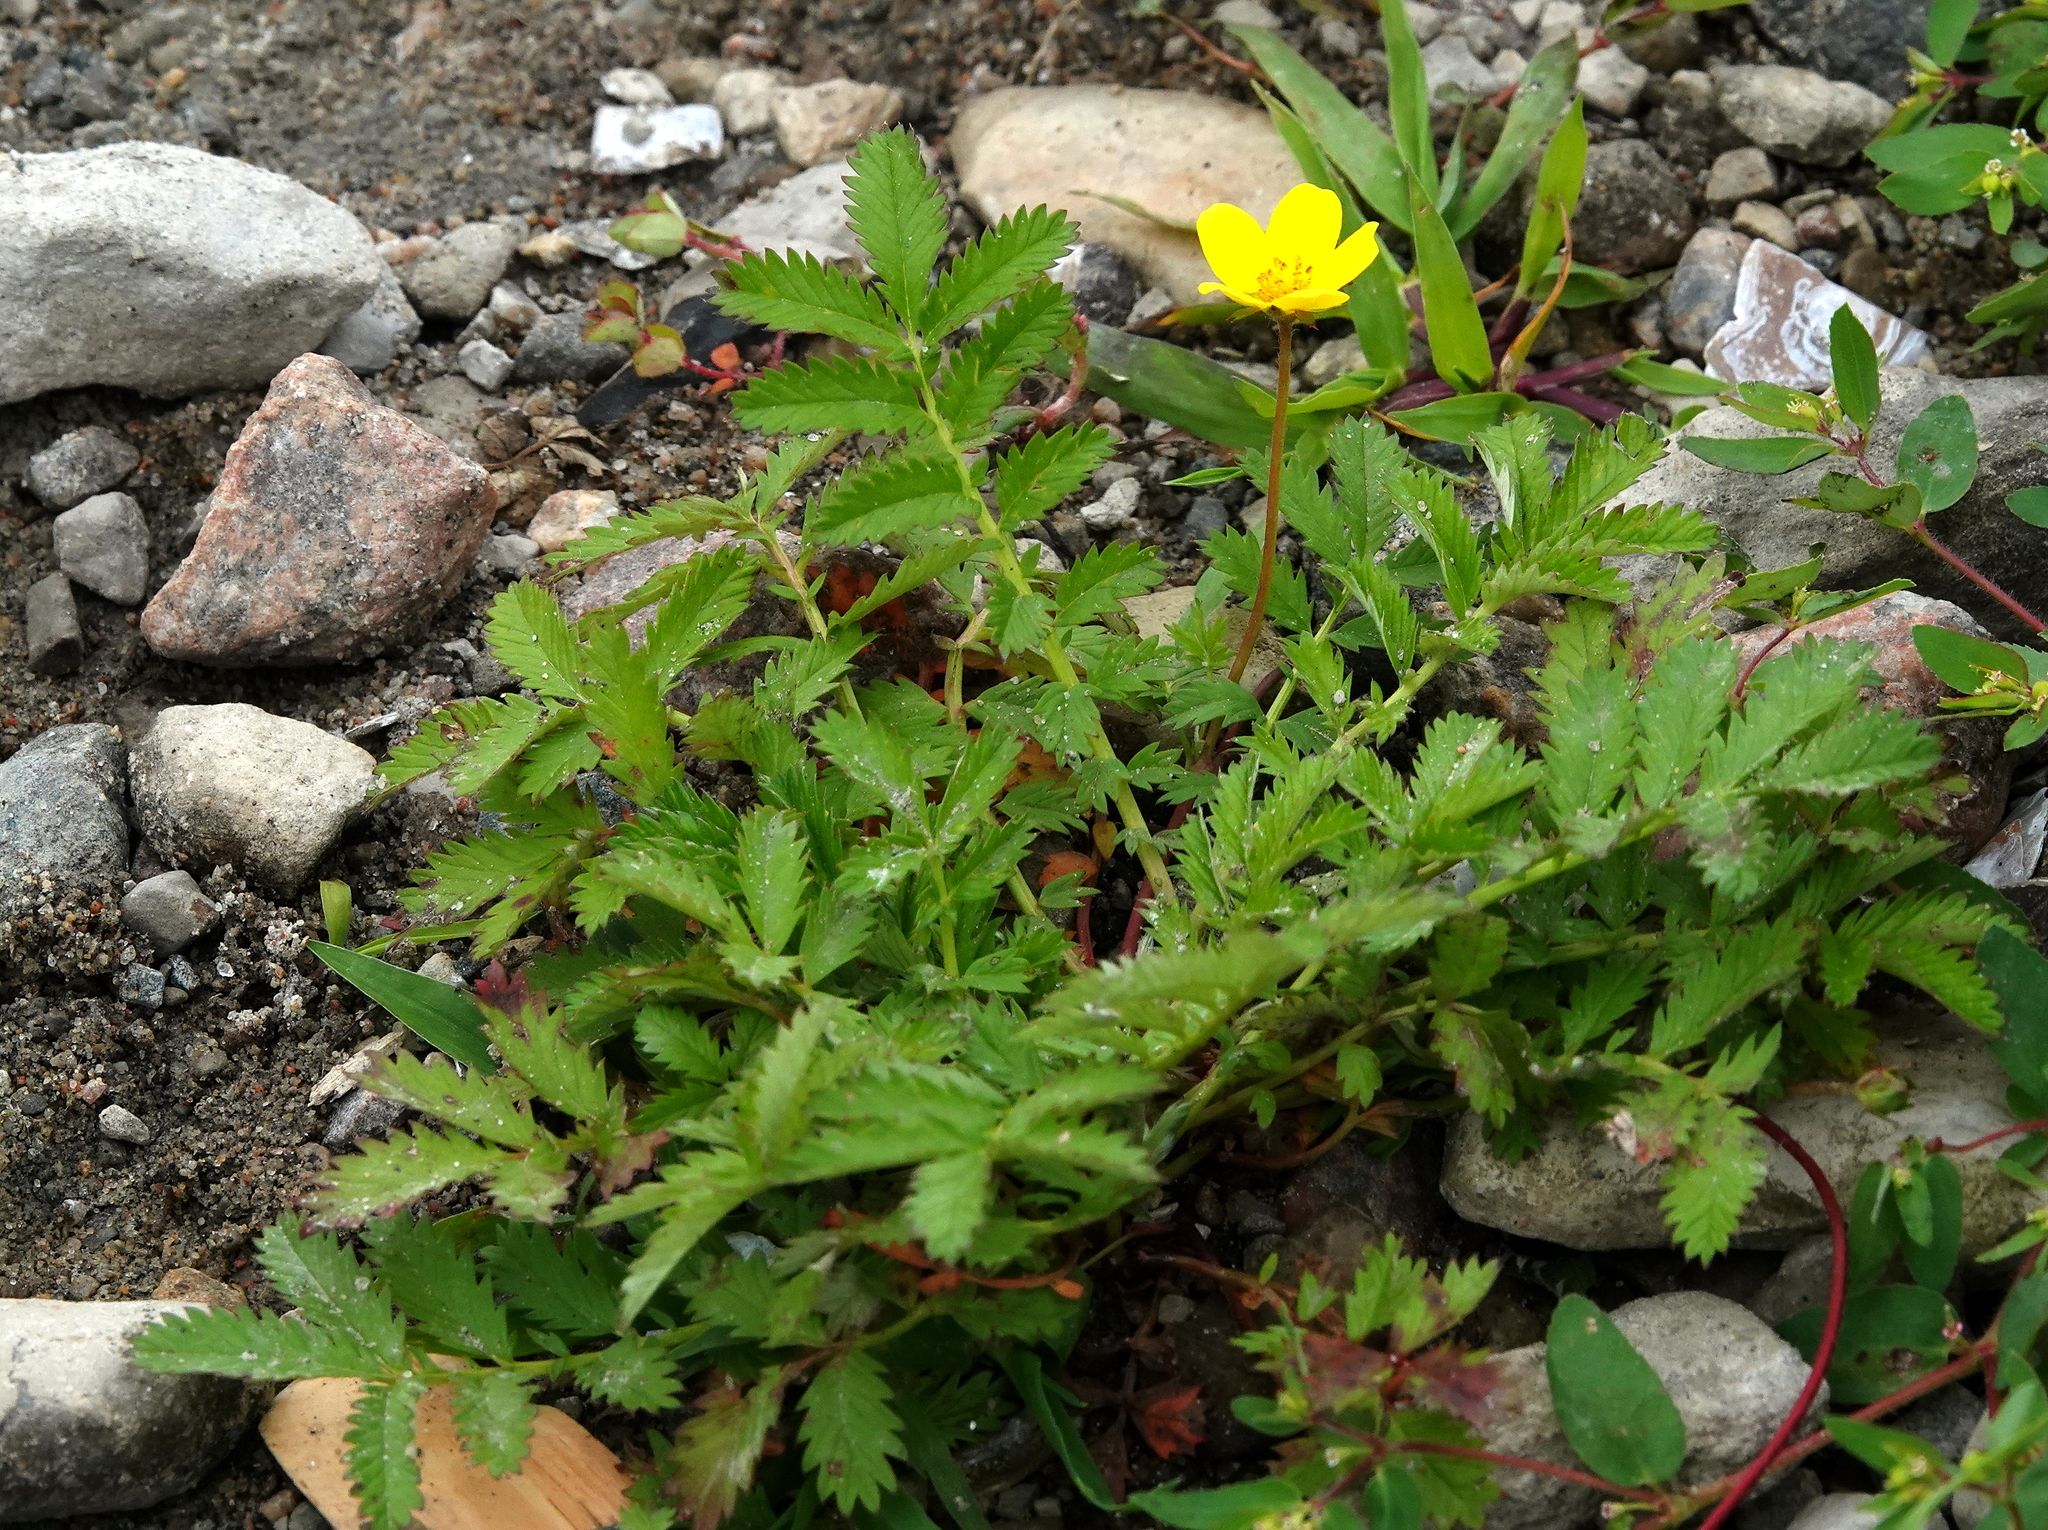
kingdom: Plantae
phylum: Tracheophyta
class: Magnoliopsida
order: Rosales
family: Rosaceae
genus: Argentina
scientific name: Argentina anserina
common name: Common silverweed
